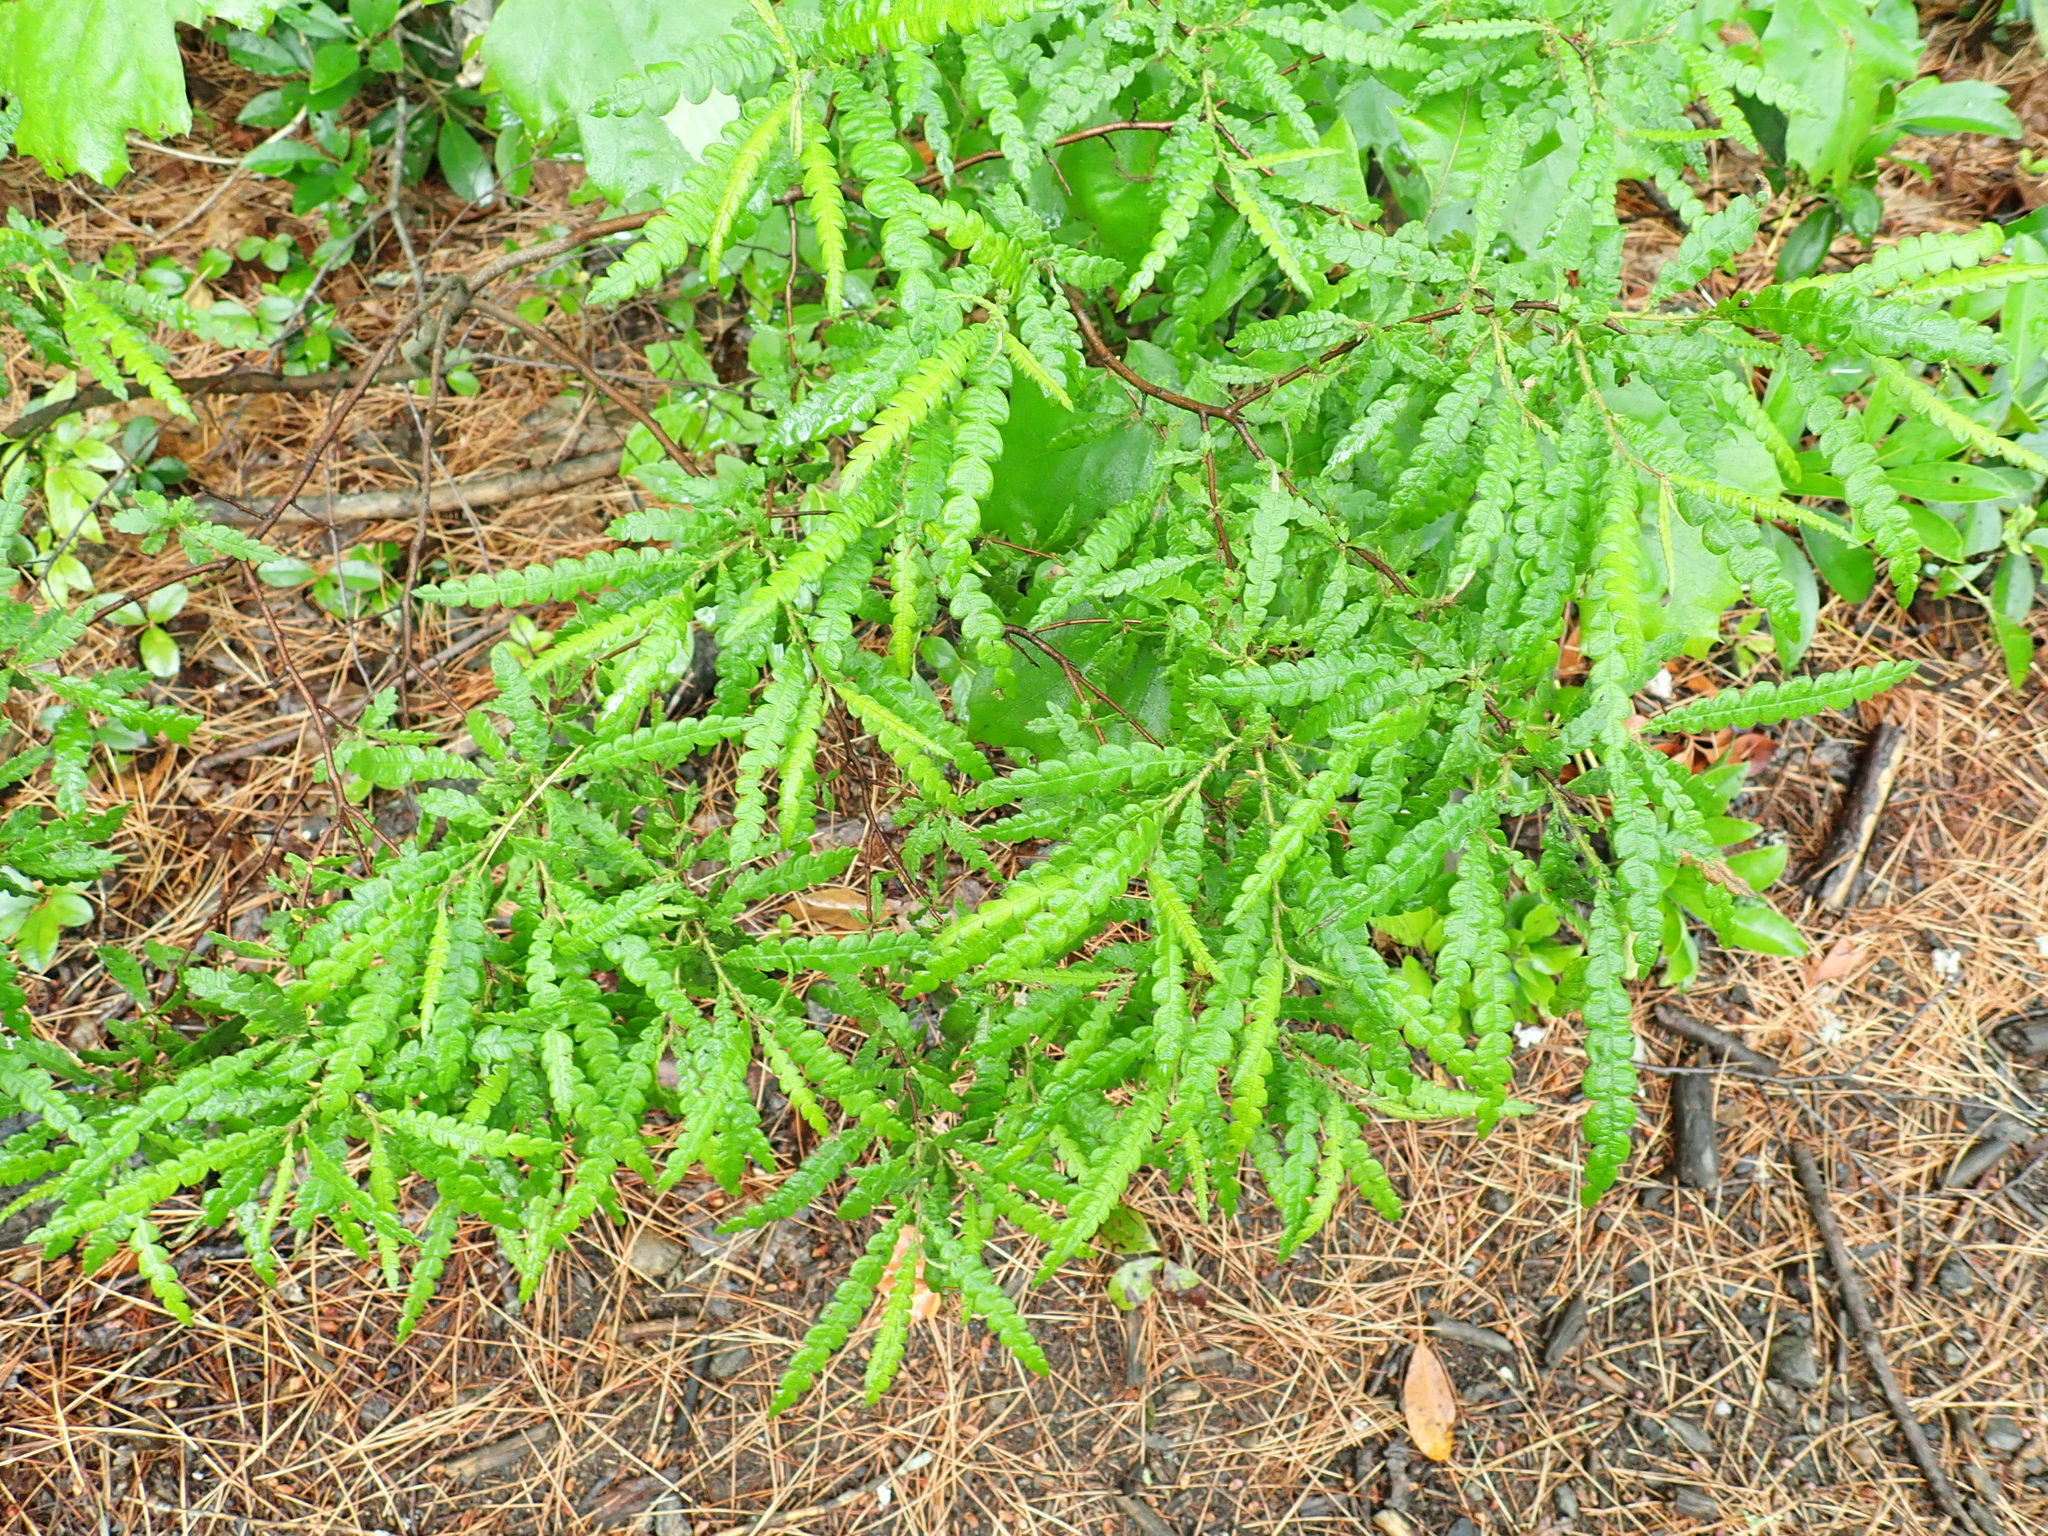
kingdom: Plantae
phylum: Tracheophyta
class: Magnoliopsida
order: Fagales
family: Myricaceae
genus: Comptonia
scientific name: Comptonia peregrina
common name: Sweet-fern
